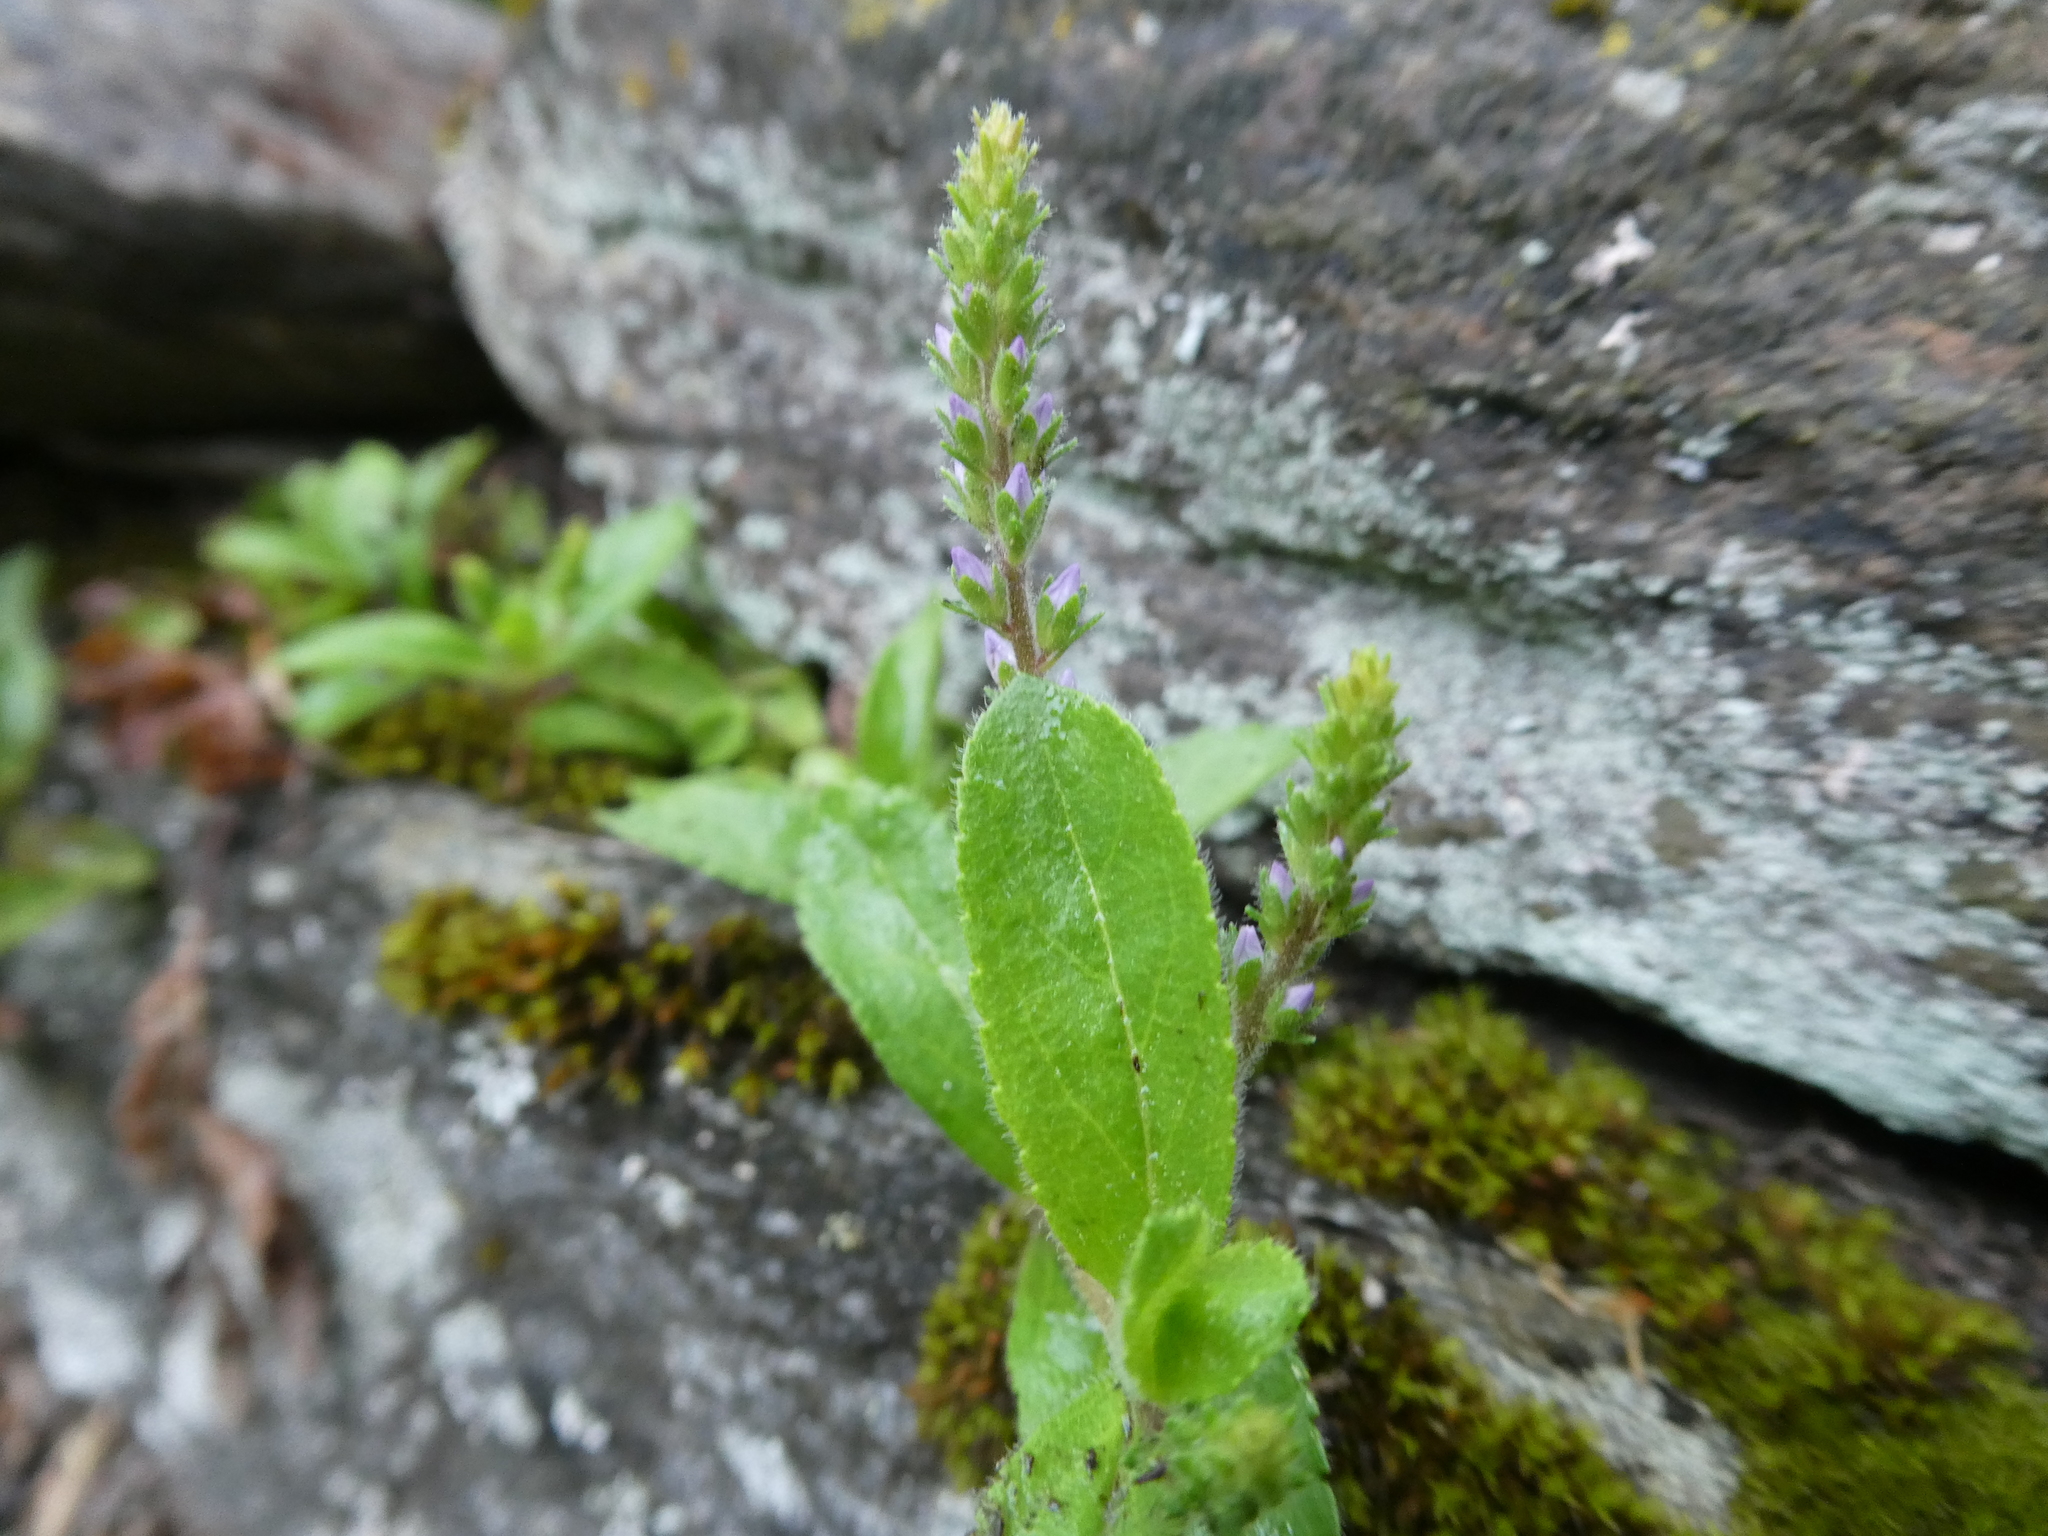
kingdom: Plantae
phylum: Tracheophyta
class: Magnoliopsida
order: Lamiales
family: Plantaginaceae
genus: Veronica
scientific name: Veronica officinalis
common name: Common speedwell
